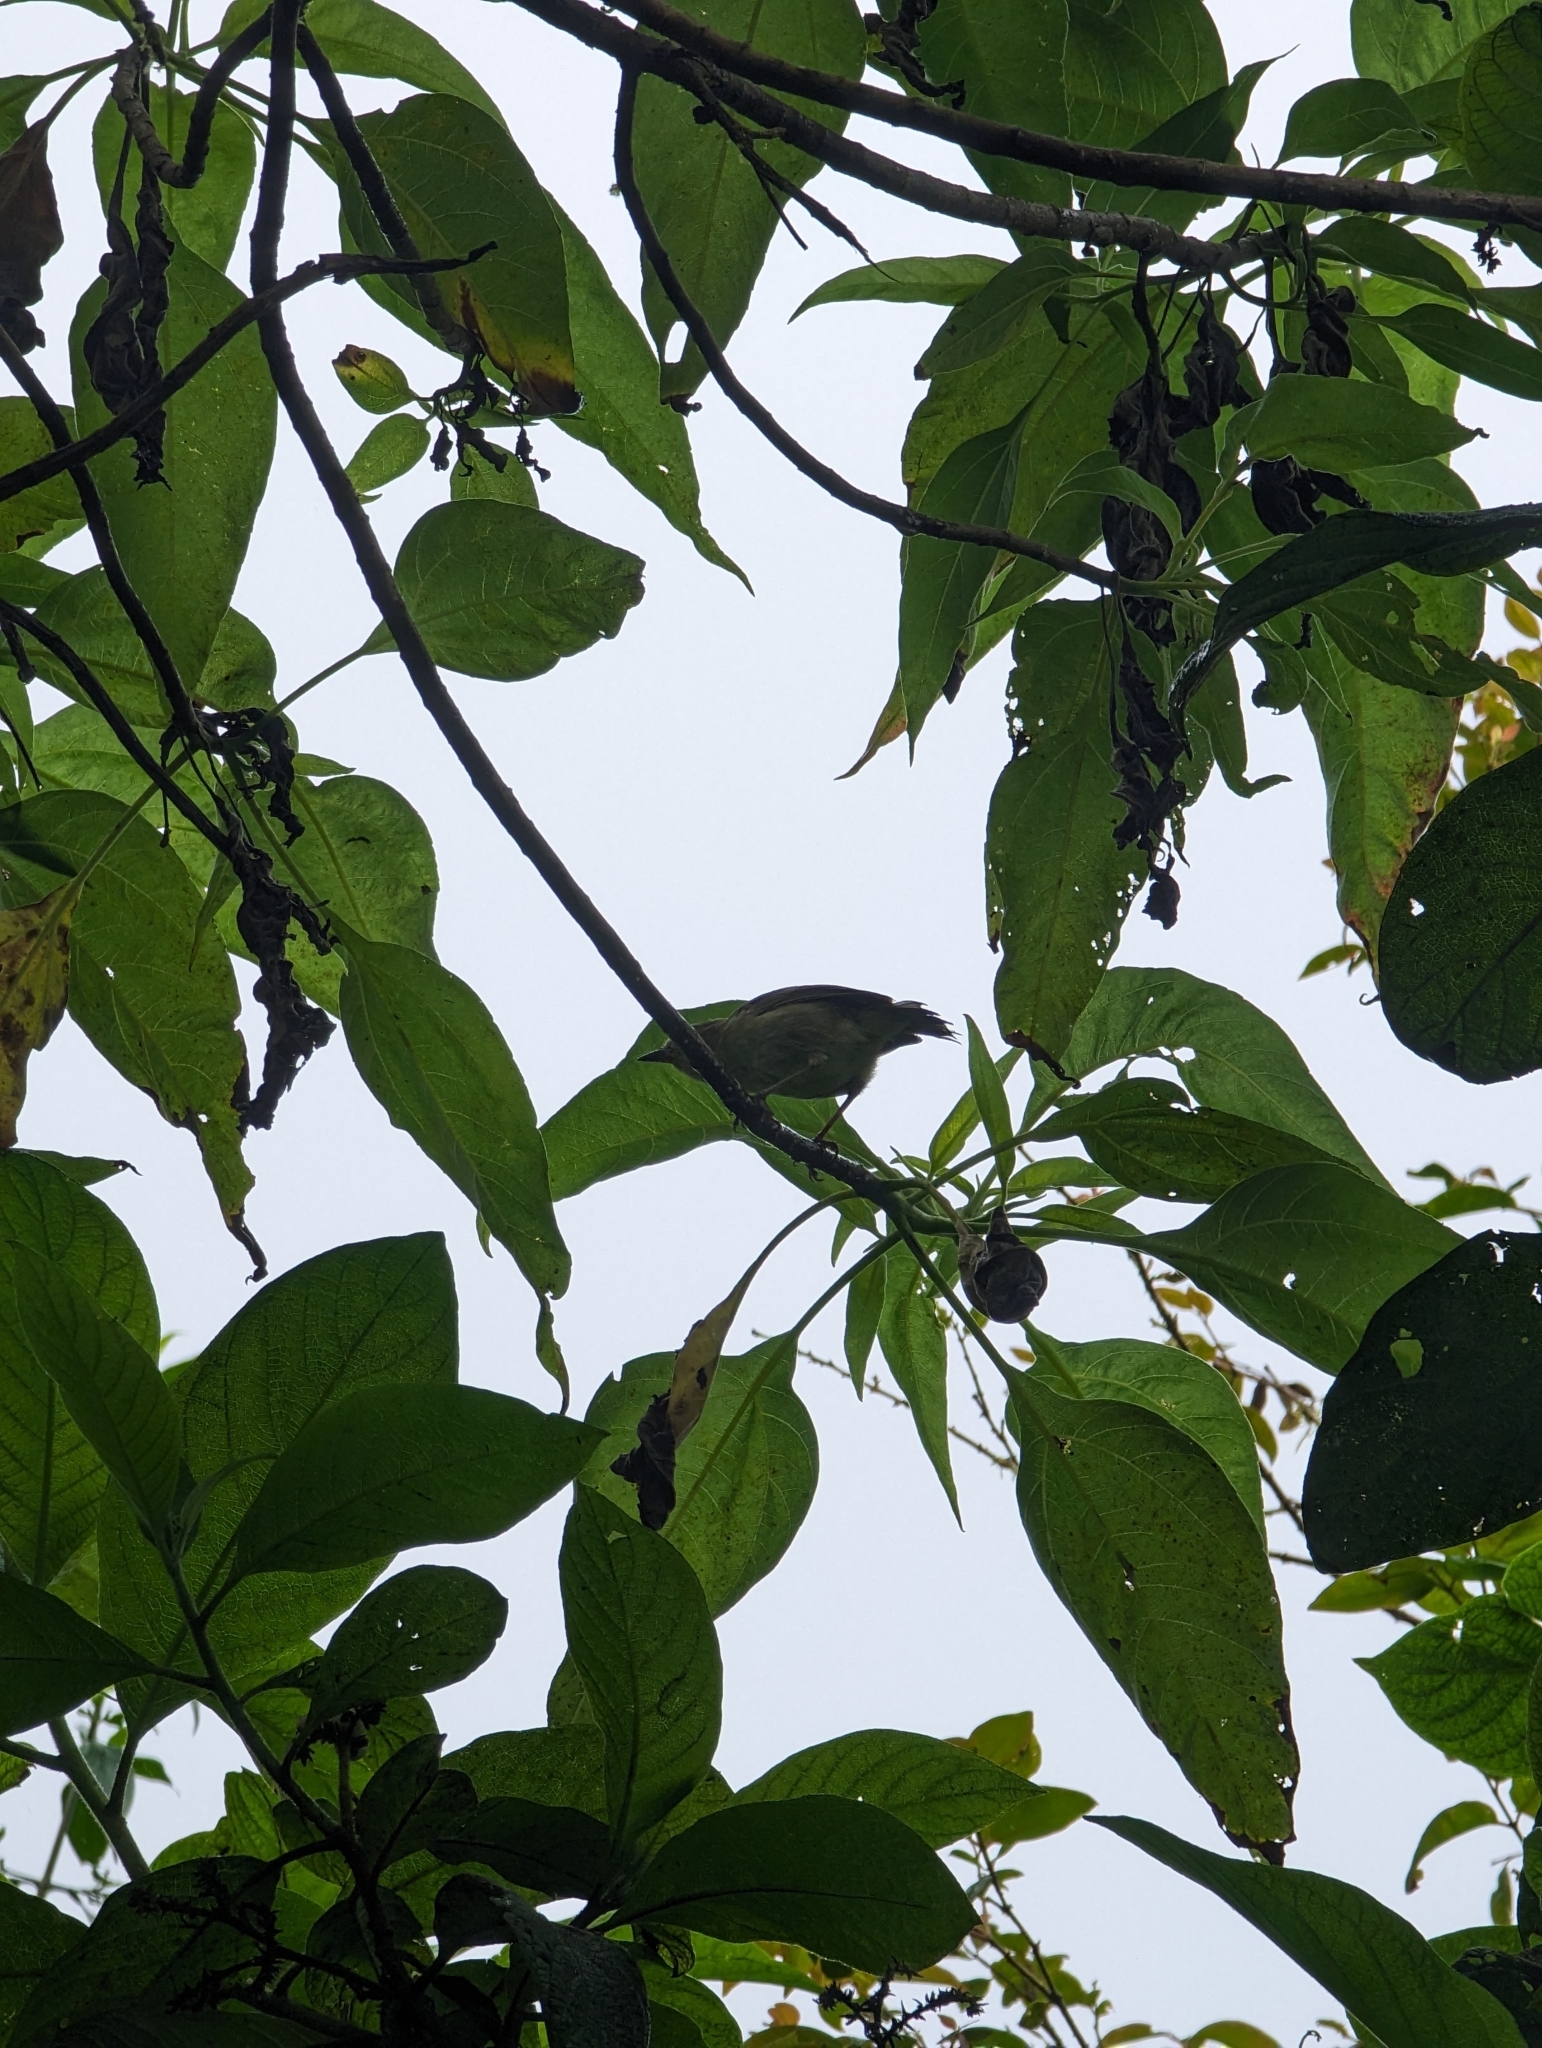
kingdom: Animalia
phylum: Chordata
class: Aves
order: Passeriformes
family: Thraupidae
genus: Certhidea
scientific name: Certhidea olivacea
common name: Green warbler-finch
